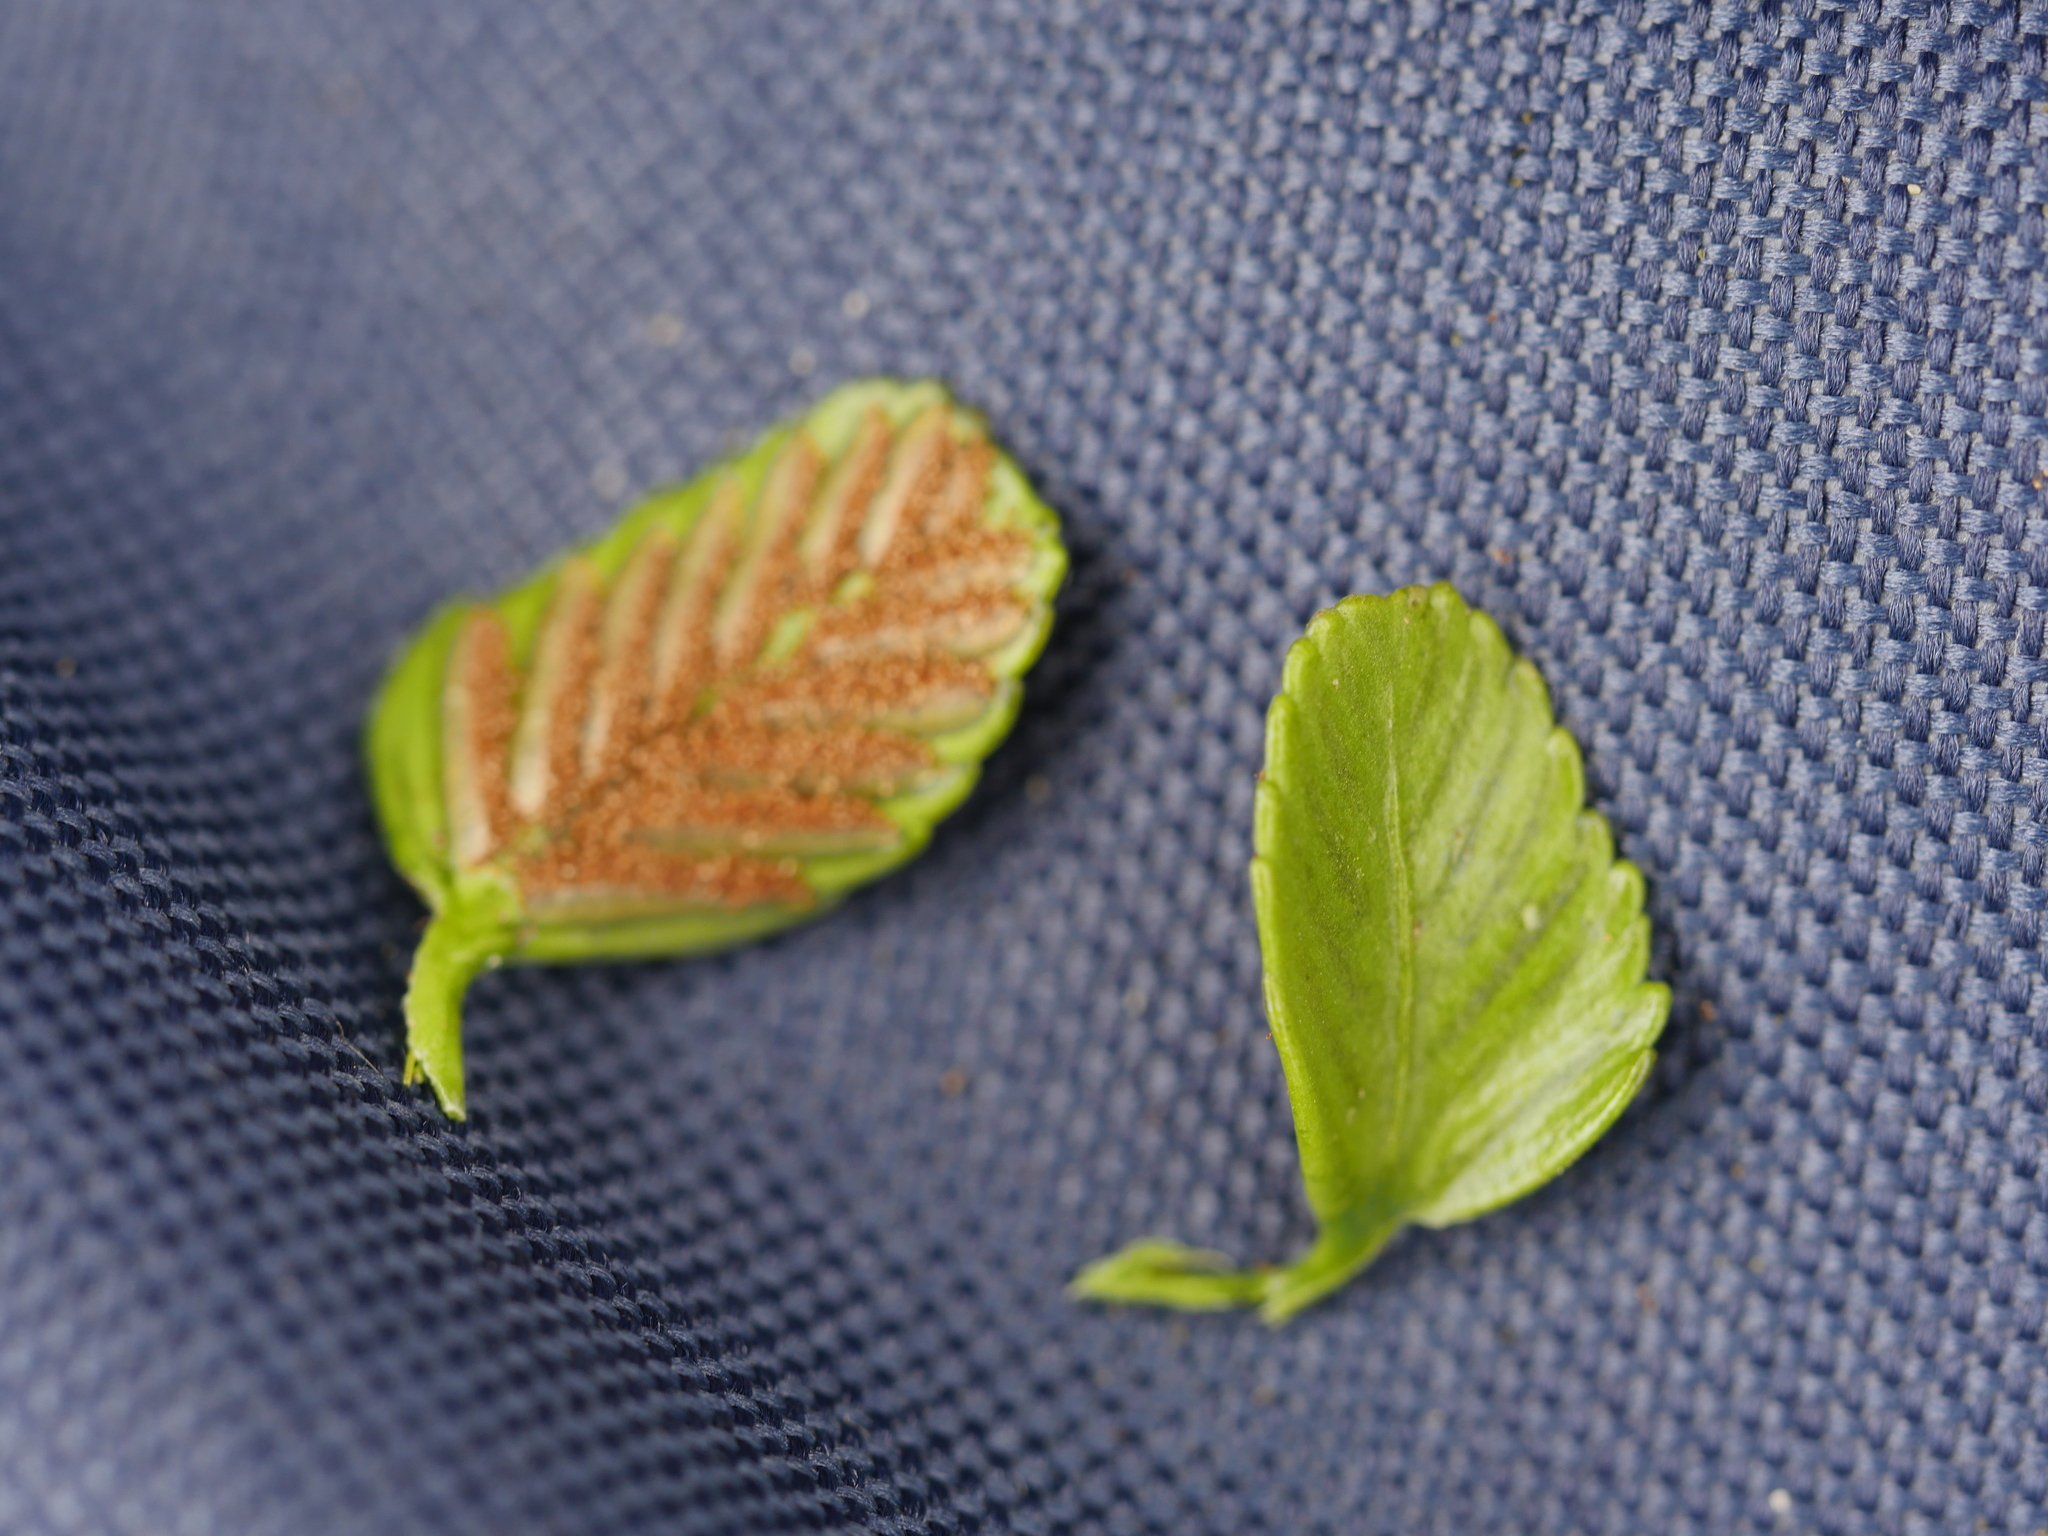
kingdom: Plantae
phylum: Tracheophyta
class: Polypodiopsida
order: Polypodiales
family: Aspleniaceae
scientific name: Aspleniaceae
